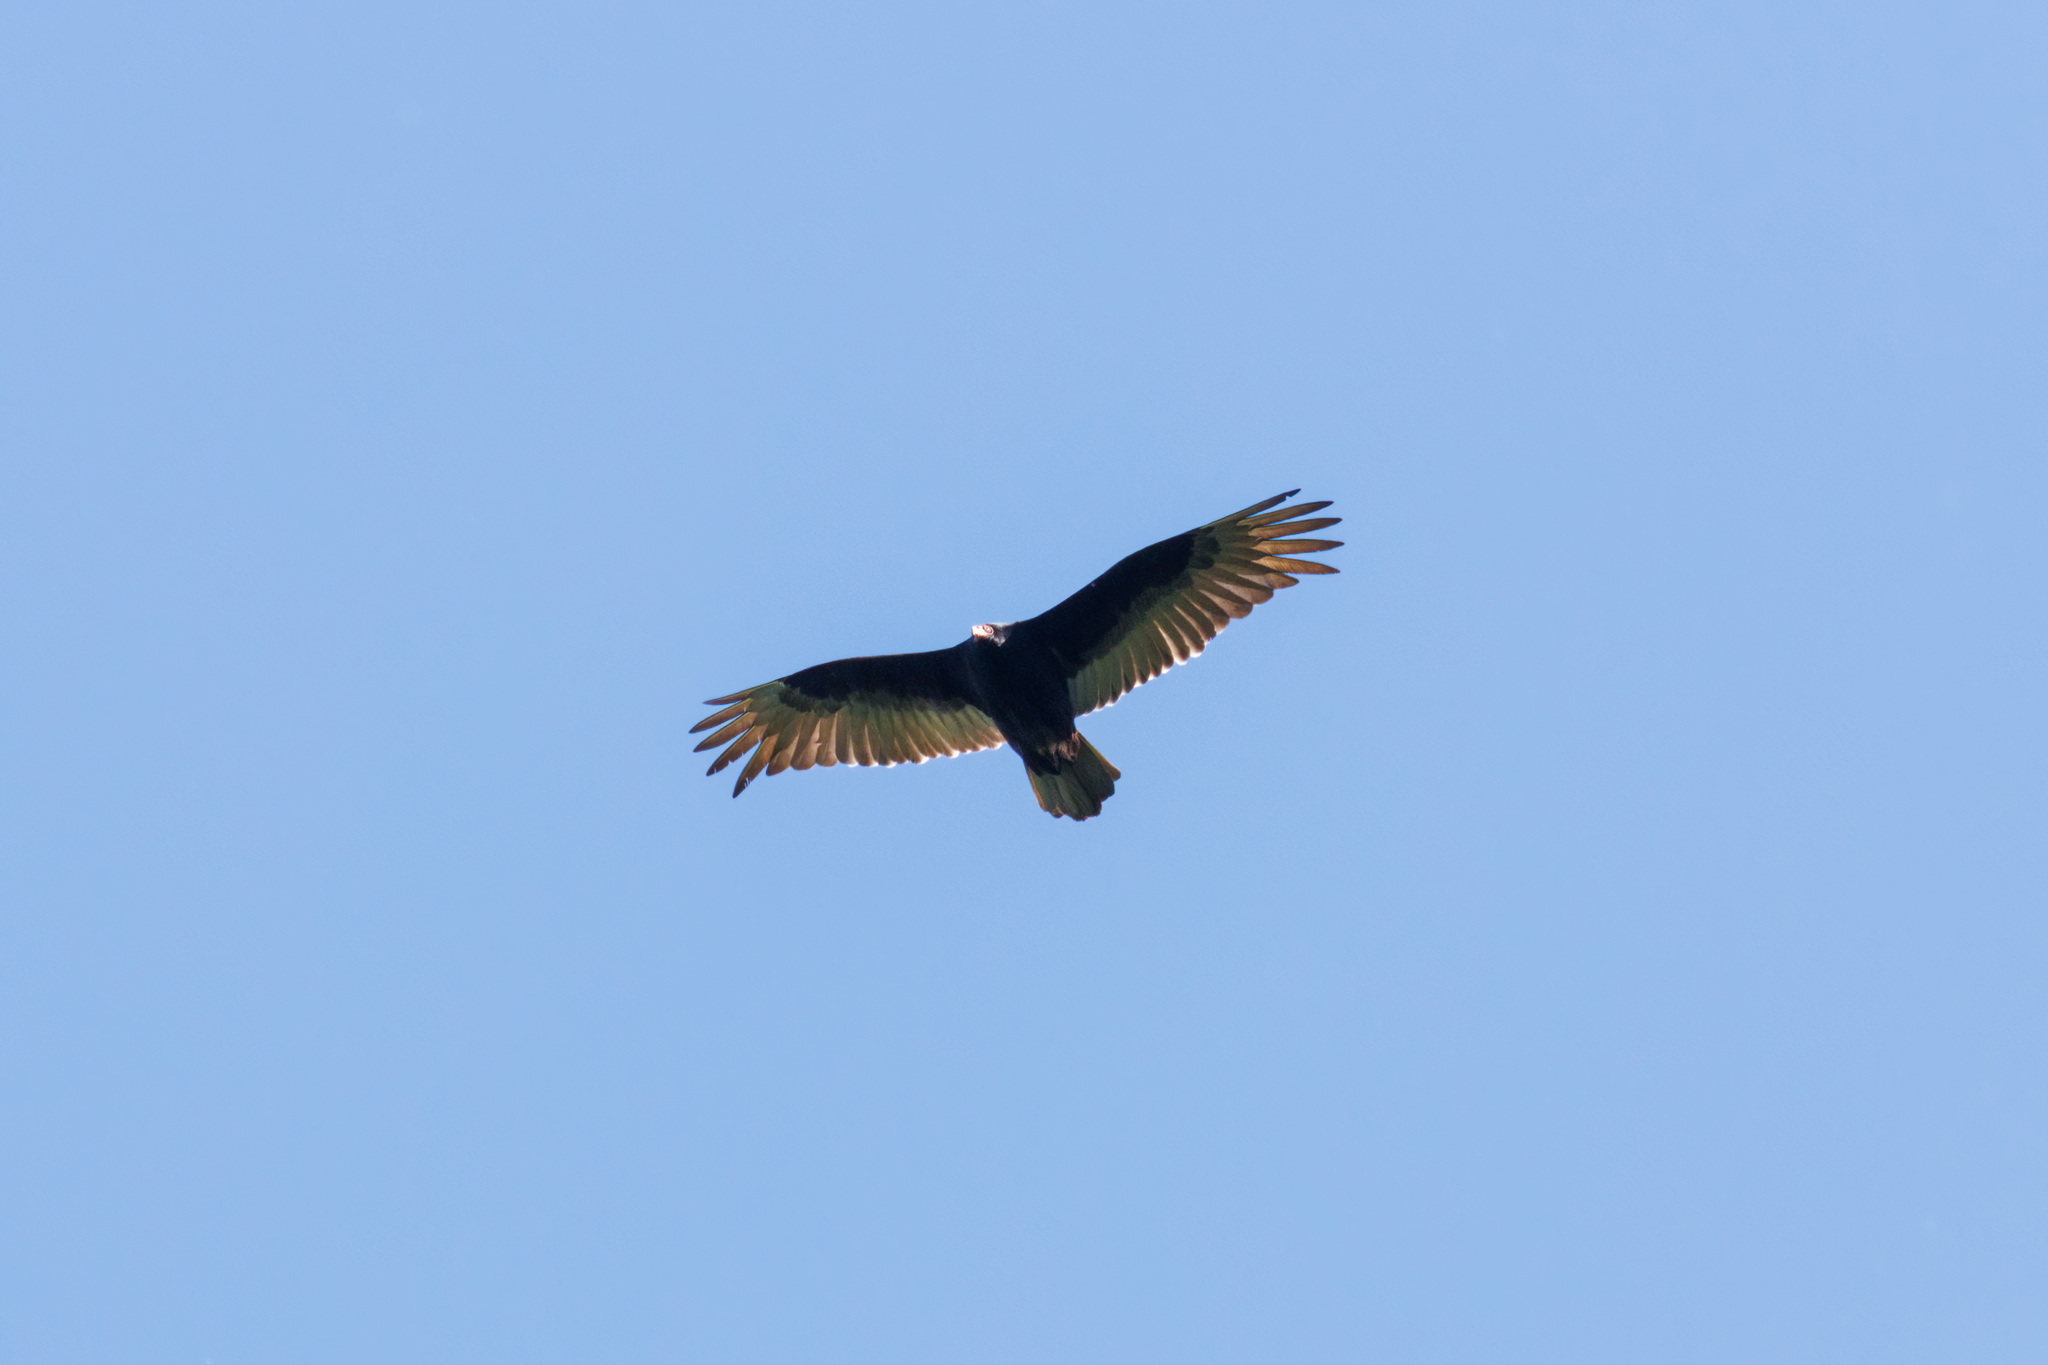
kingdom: Animalia
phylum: Chordata
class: Aves
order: Accipitriformes
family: Cathartidae
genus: Cathartes
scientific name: Cathartes aura
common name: Turkey vulture
